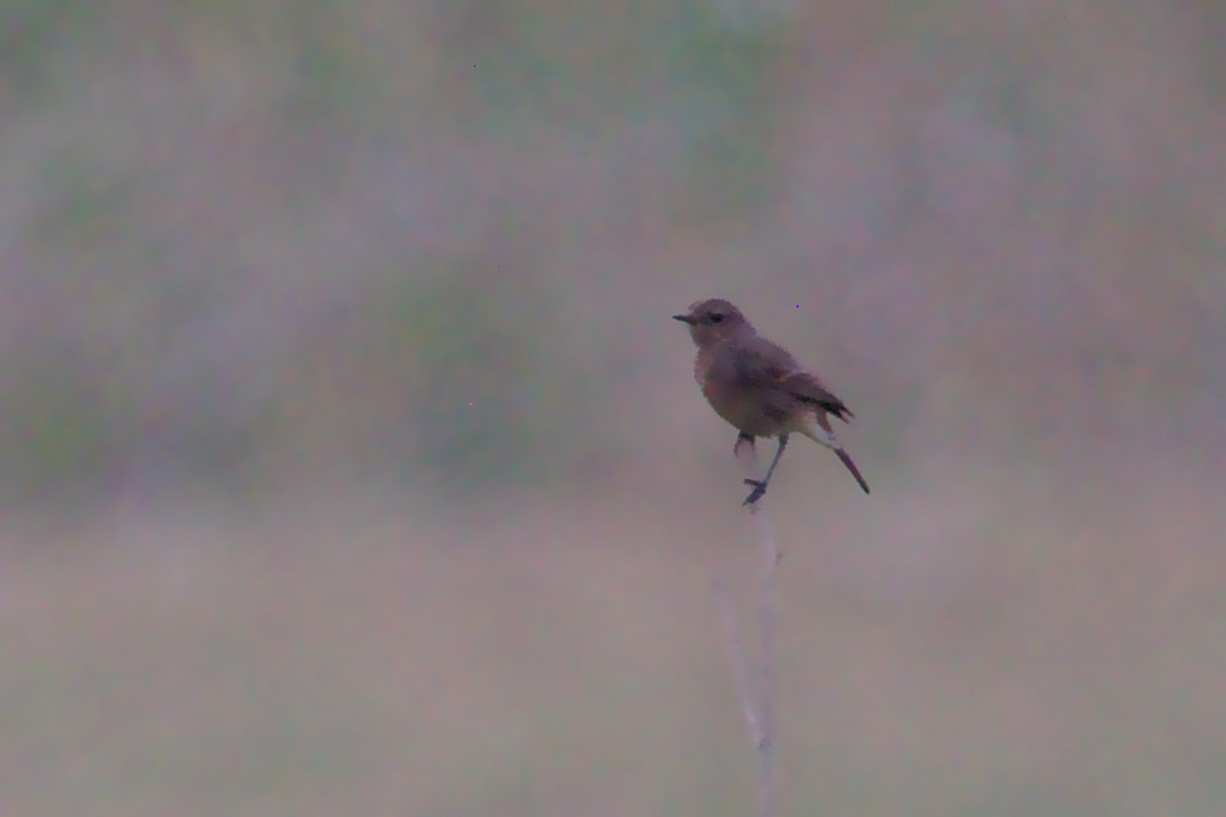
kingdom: Animalia
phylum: Chordata
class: Aves
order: Passeriformes
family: Muscicapidae
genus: Saxicola
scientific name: Saxicola caprata
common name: Pied bush chat
